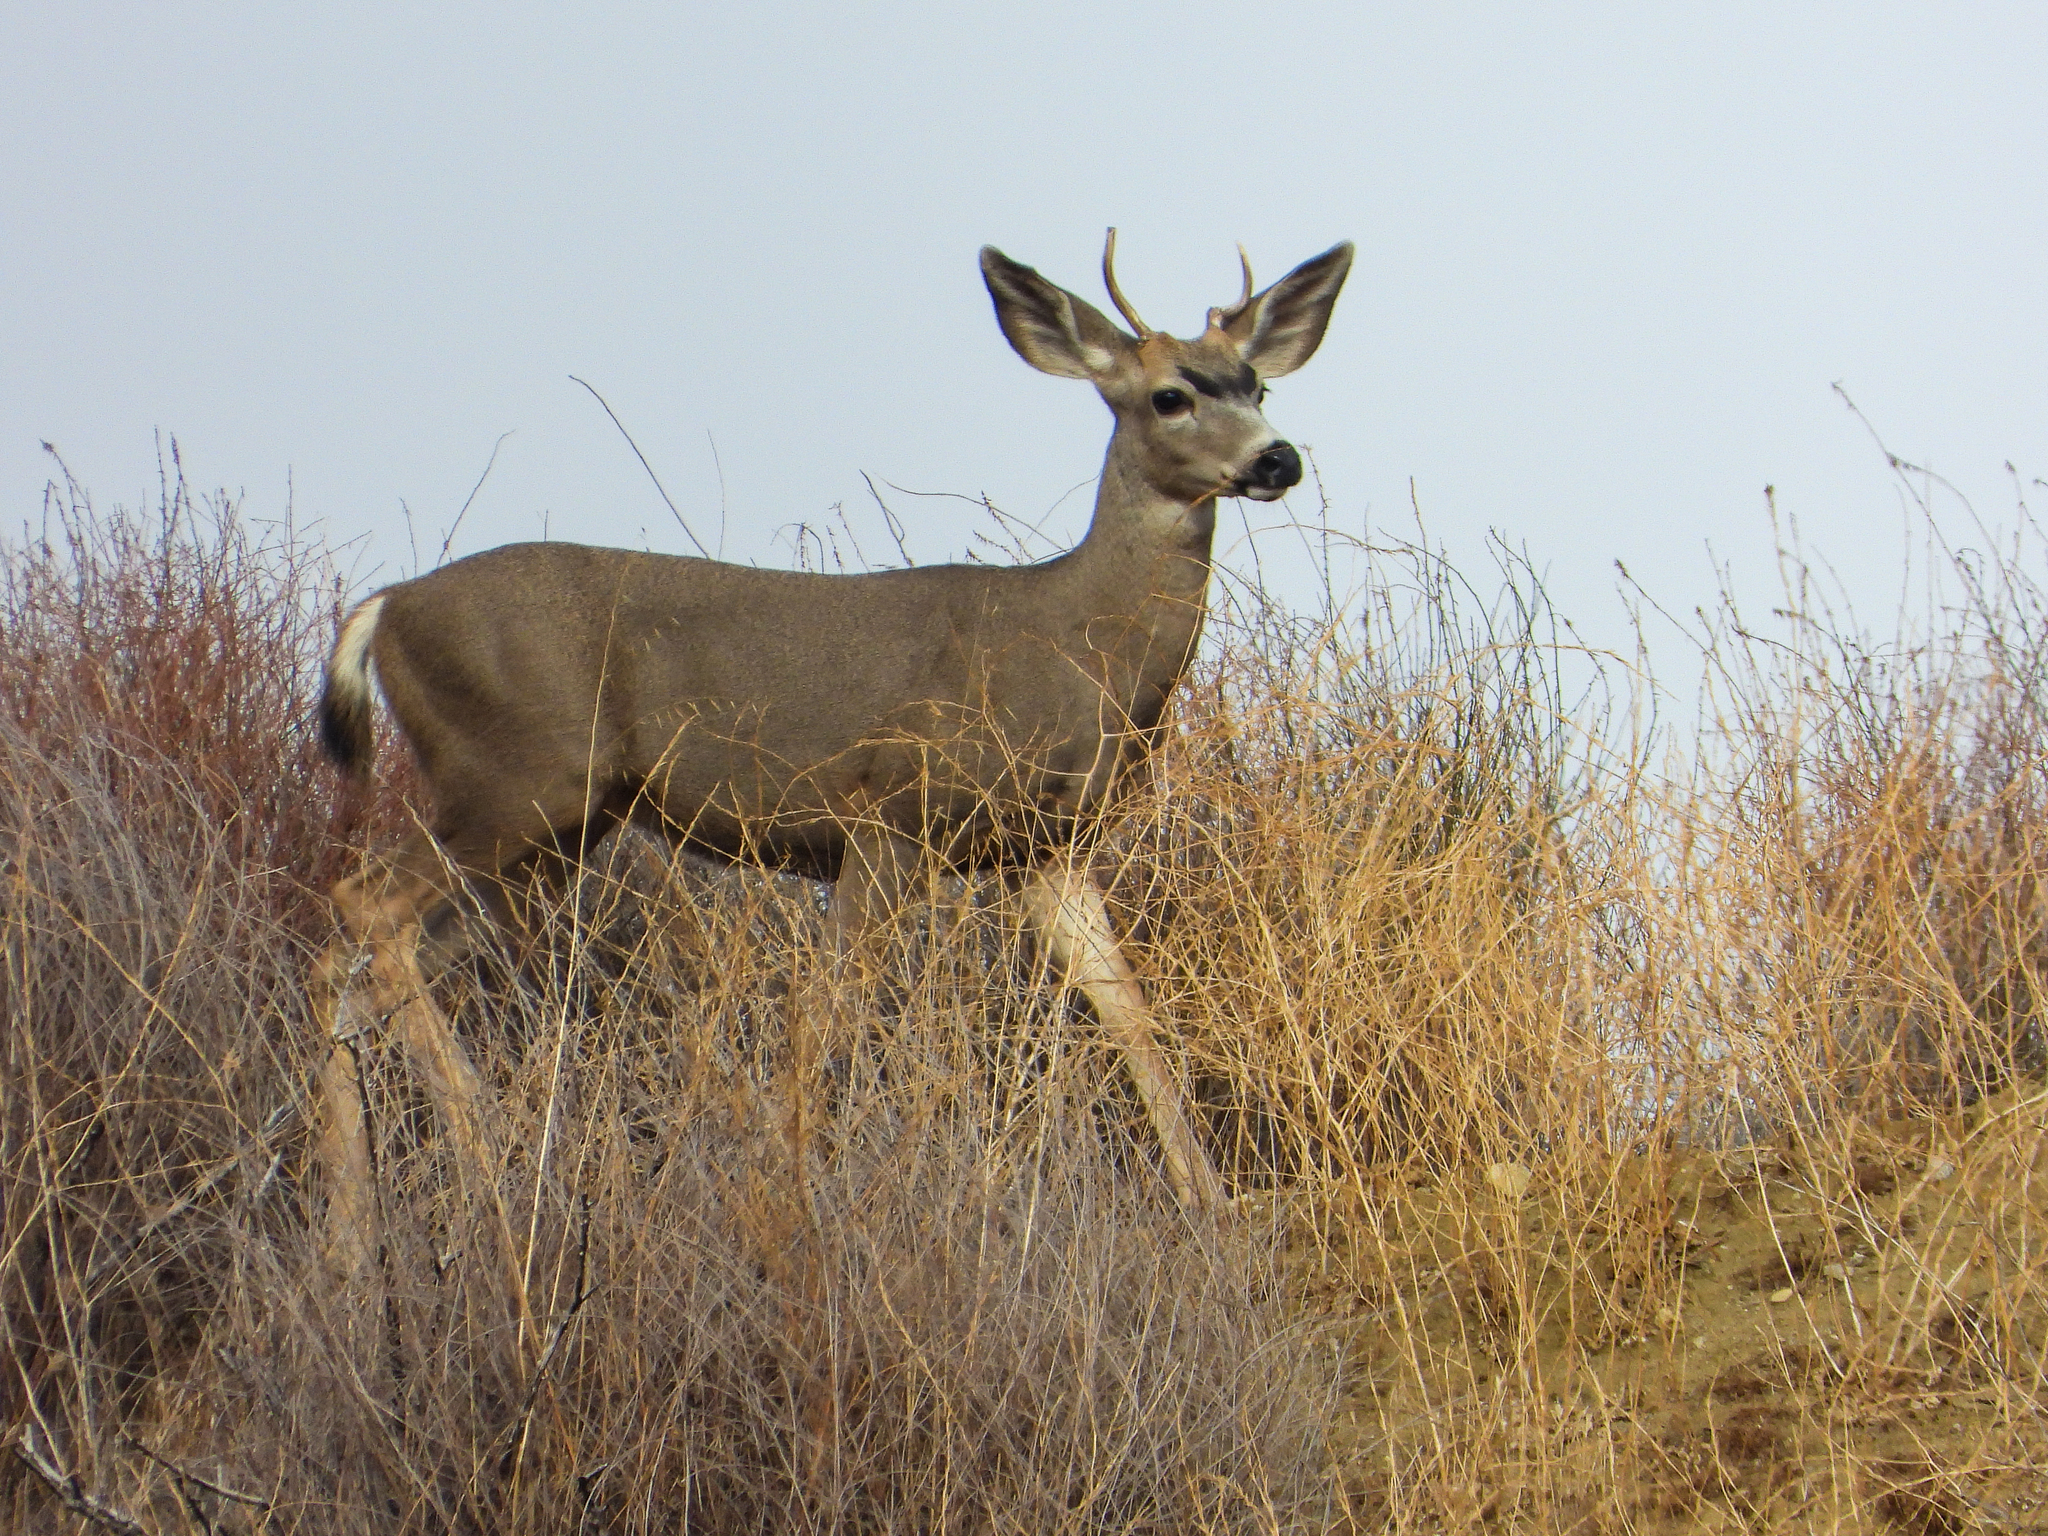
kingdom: Animalia
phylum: Chordata
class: Mammalia
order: Artiodactyla
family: Cervidae
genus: Odocoileus
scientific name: Odocoileus hemionus
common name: Mule deer
